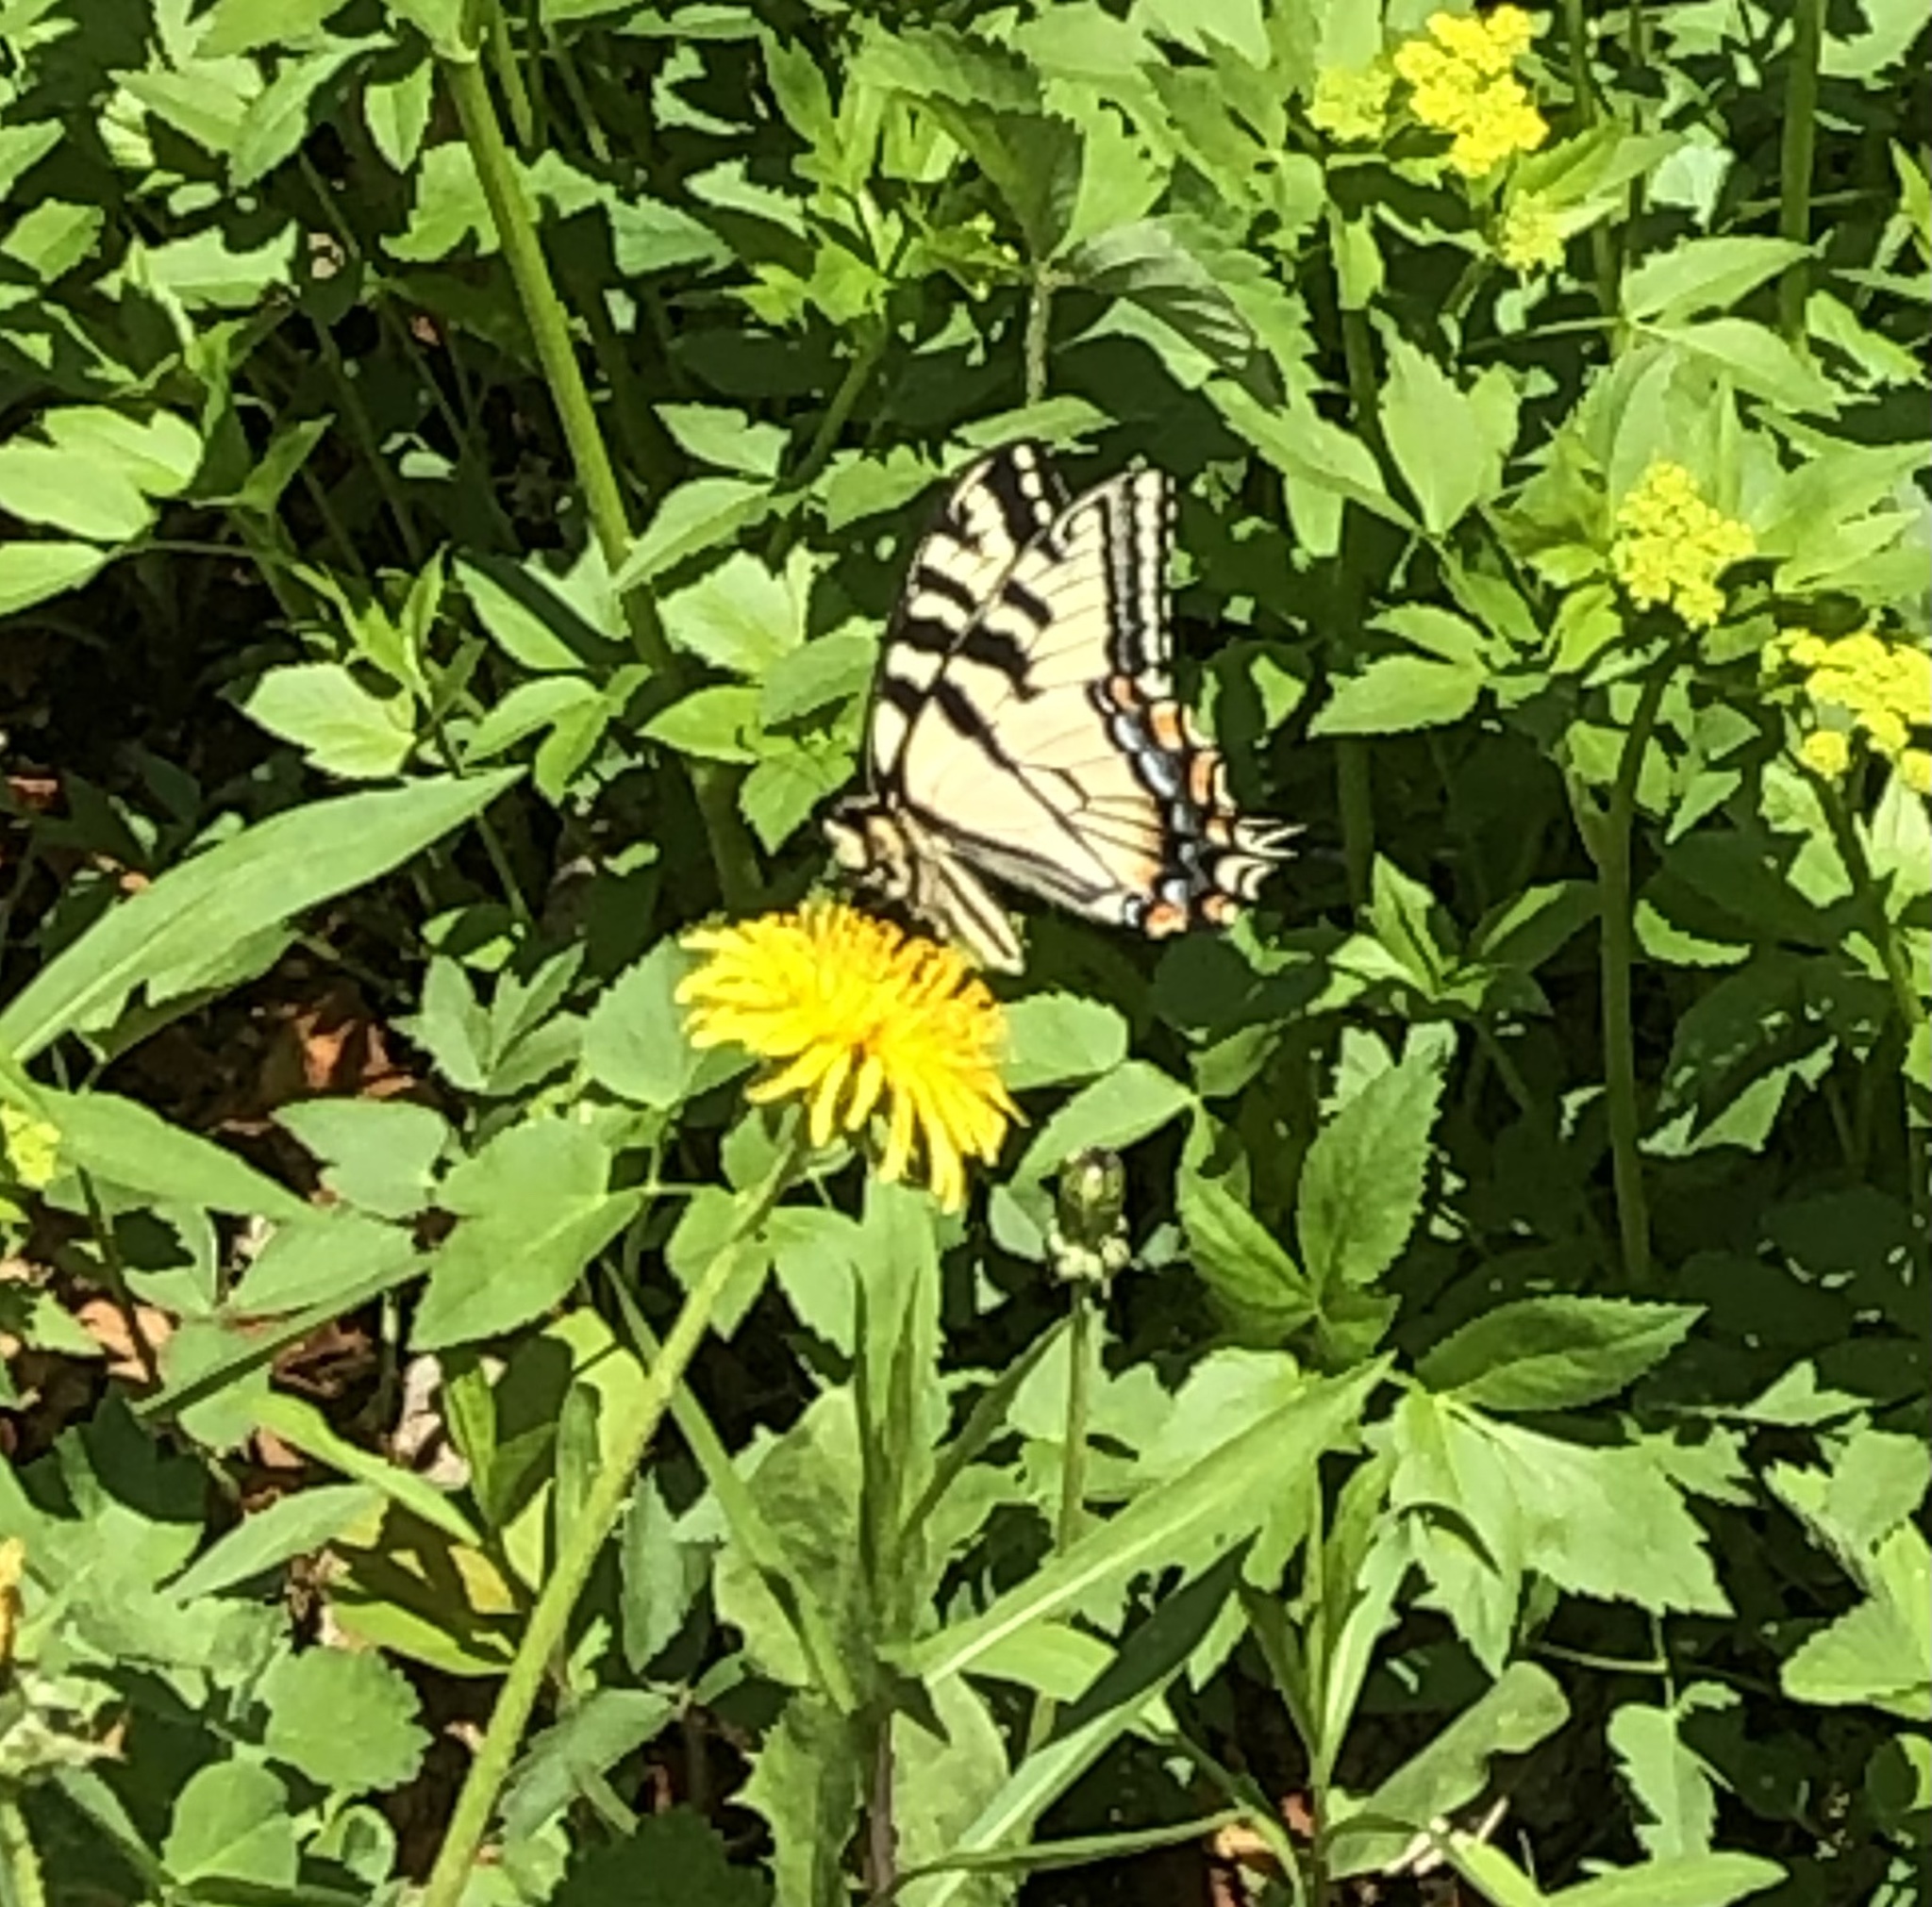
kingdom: Animalia
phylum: Arthropoda
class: Insecta
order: Lepidoptera
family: Papilionidae
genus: Papilio
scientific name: Papilio canadensis
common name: Canadian tiger swallowtail
